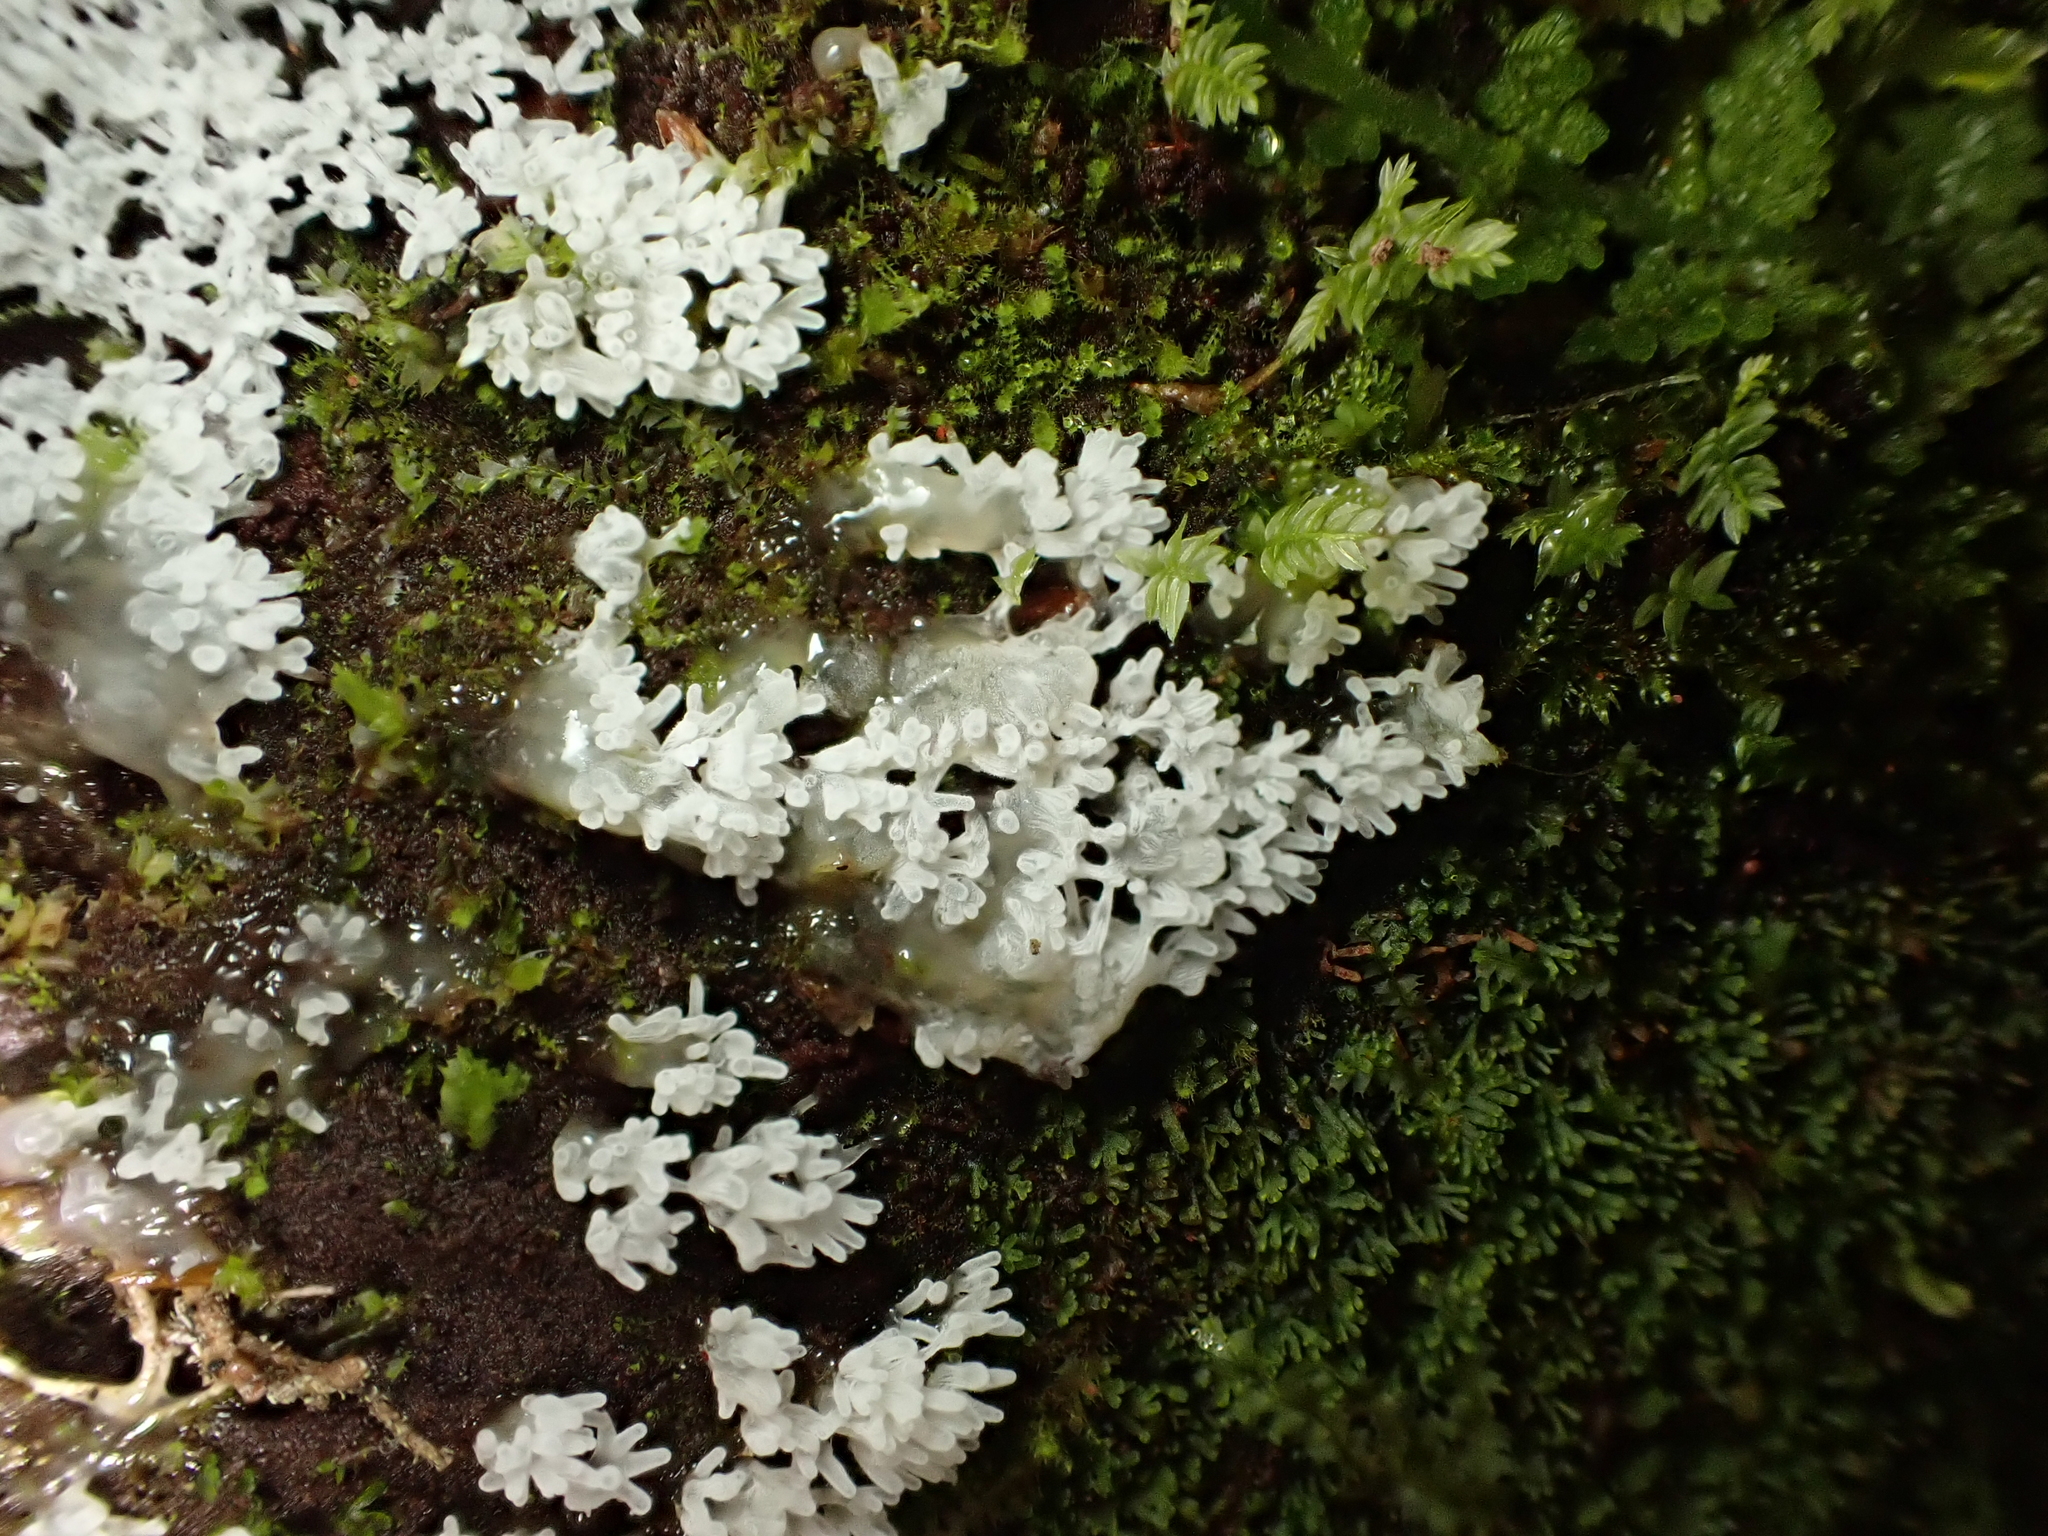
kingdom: Protozoa
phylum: Mycetozoa
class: Protosteliomycetes
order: Ceratiomyxales
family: Ceratiomyxaceae
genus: Ceratiomyxa
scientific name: Ceratiomyxa fruticulosa
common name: Honeycomb coral slime mold
